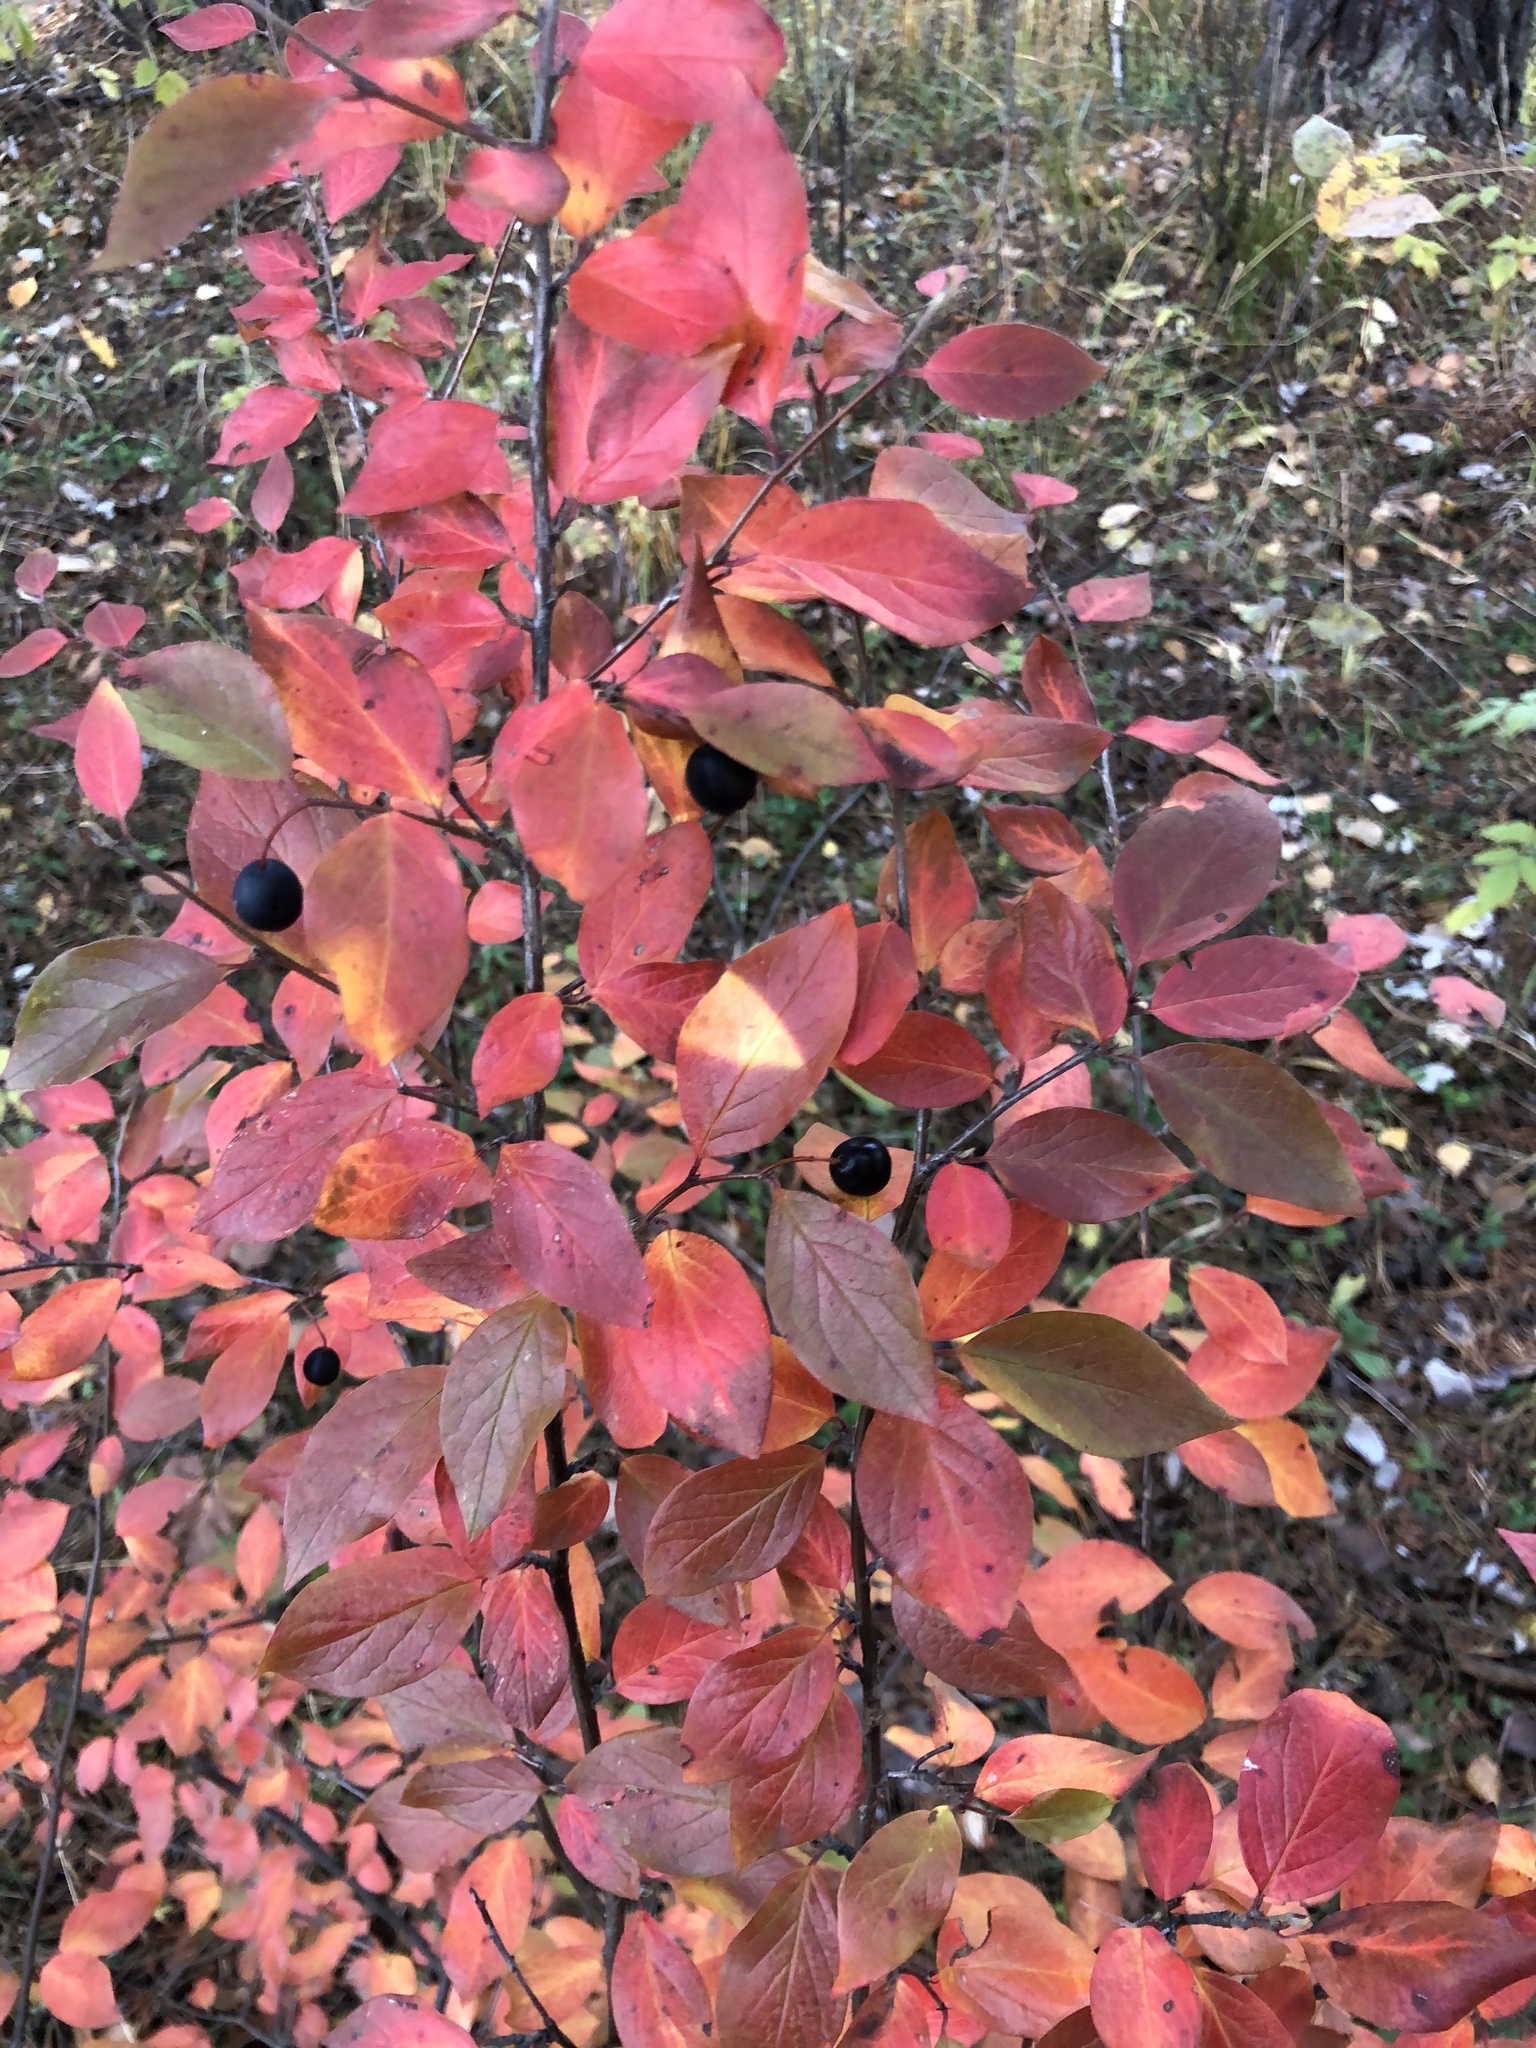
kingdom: Plantae
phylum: Tracheophyta
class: Magnoliopsida
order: Rosales
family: Rosaceae
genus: Cotoneaster
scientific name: Cotoneaster acutifolius
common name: Peking cotoneaster
